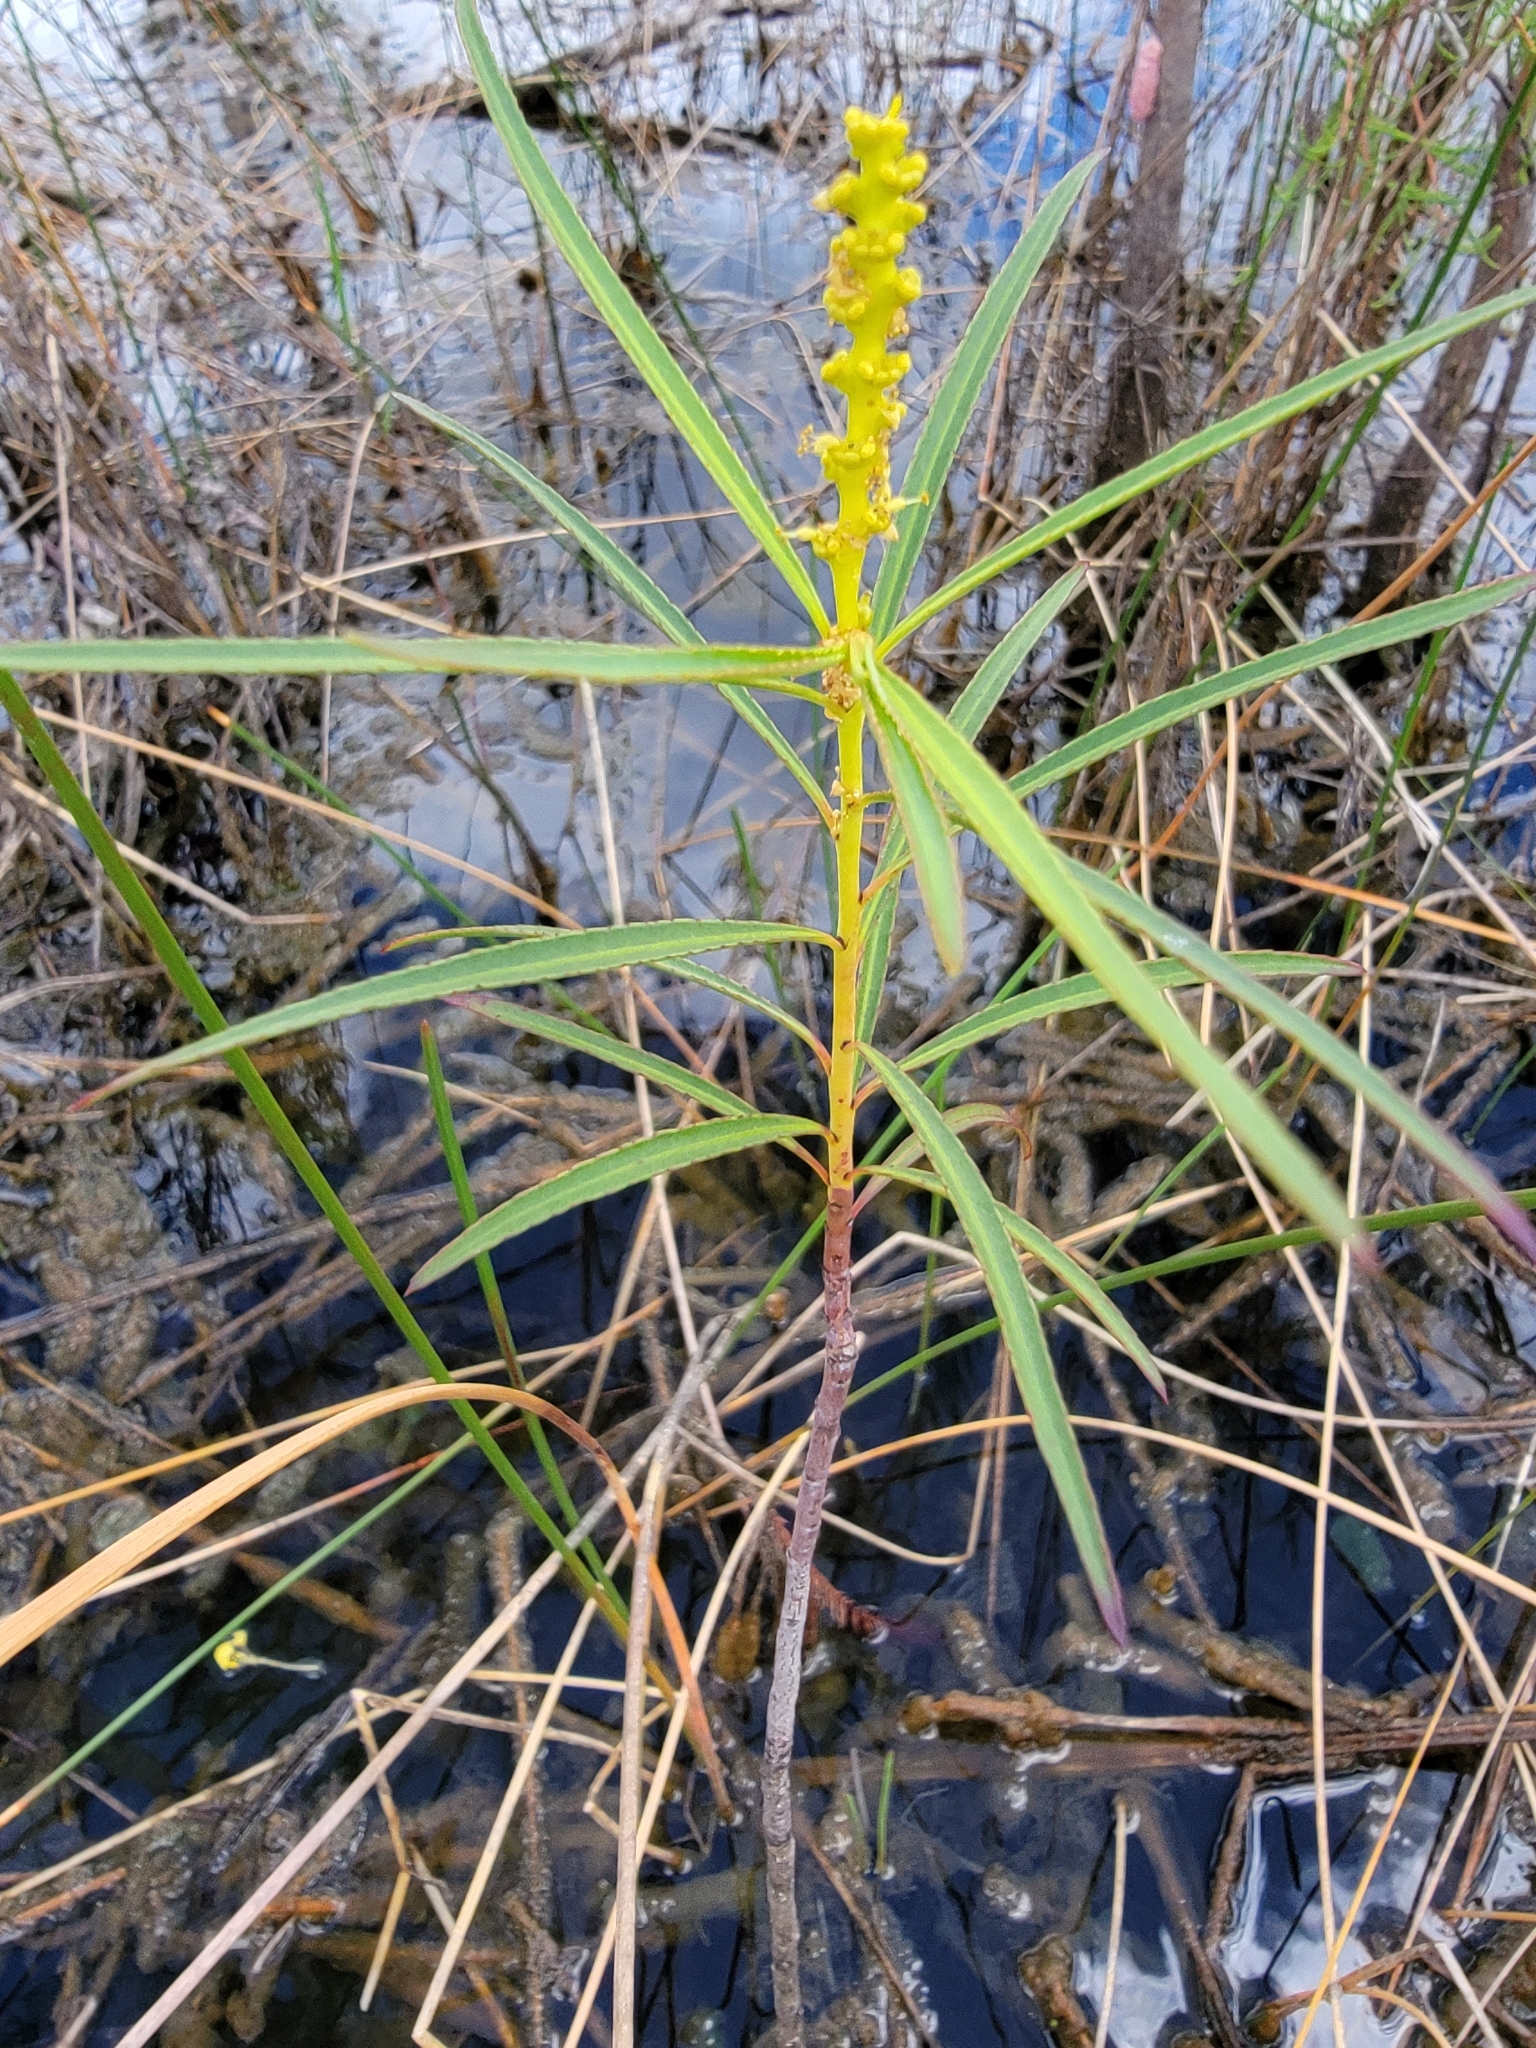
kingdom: Plantae
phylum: Tracheophyta
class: Magnoliopsida
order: Malpighiales
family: Euphorbiaceae
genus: Stillingia
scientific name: Stillingia aquatica
